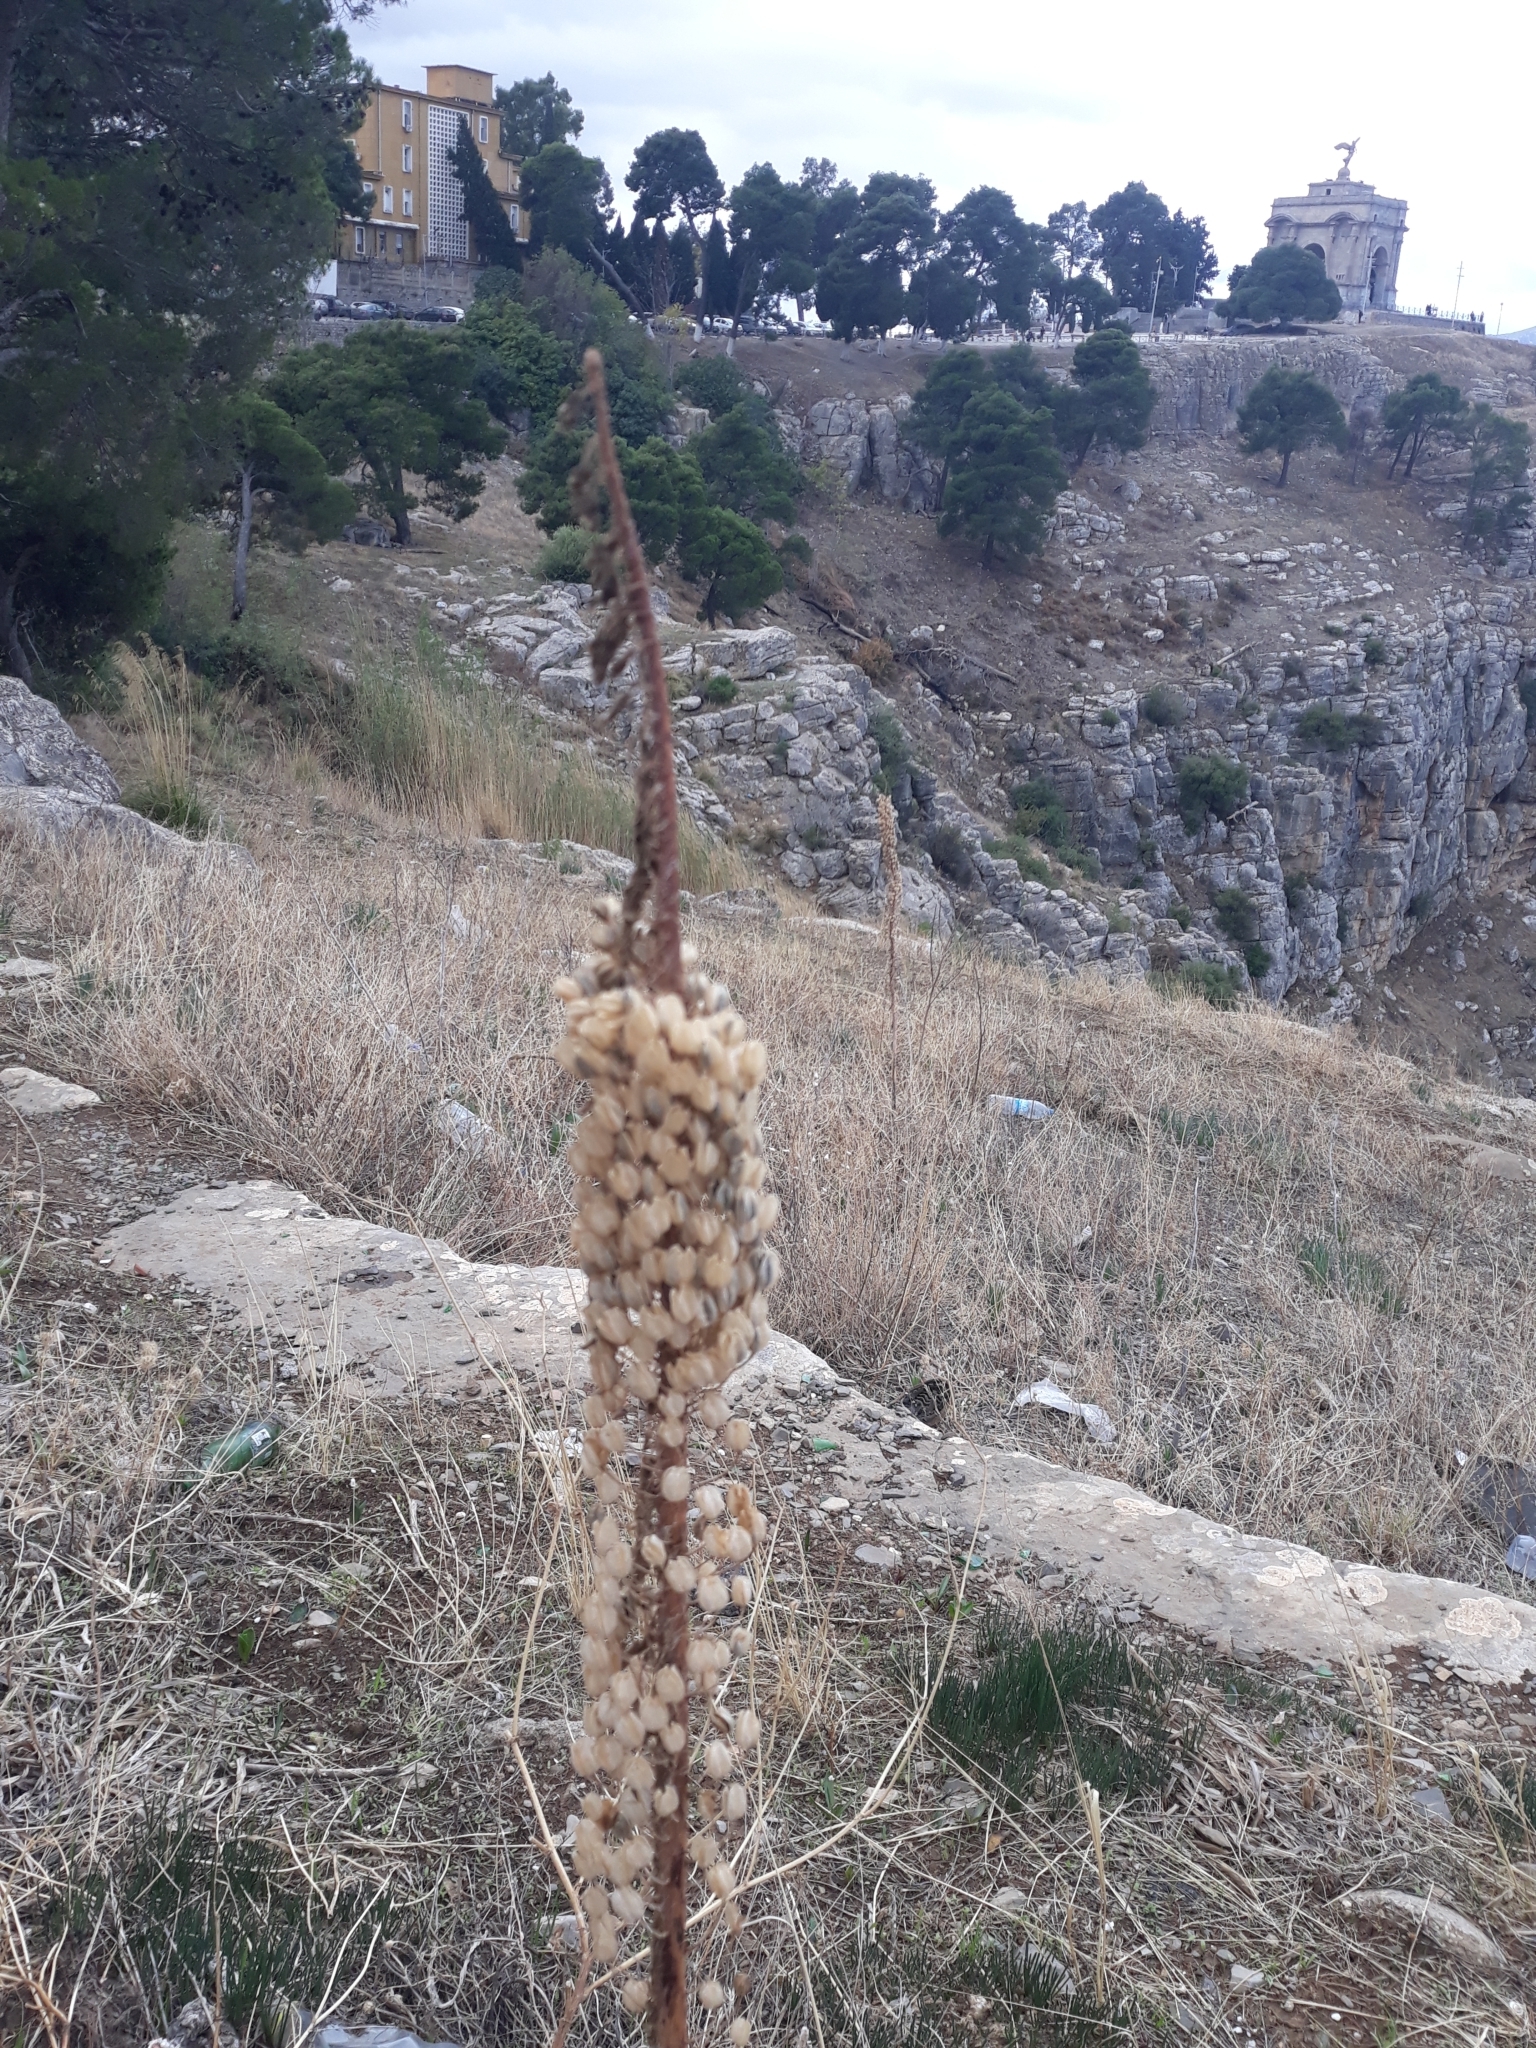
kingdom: Plantae
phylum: Tracheophyta
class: Liliopsida
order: Asparagales
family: Asparagaceae
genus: Drimia
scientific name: Drimia numidica
